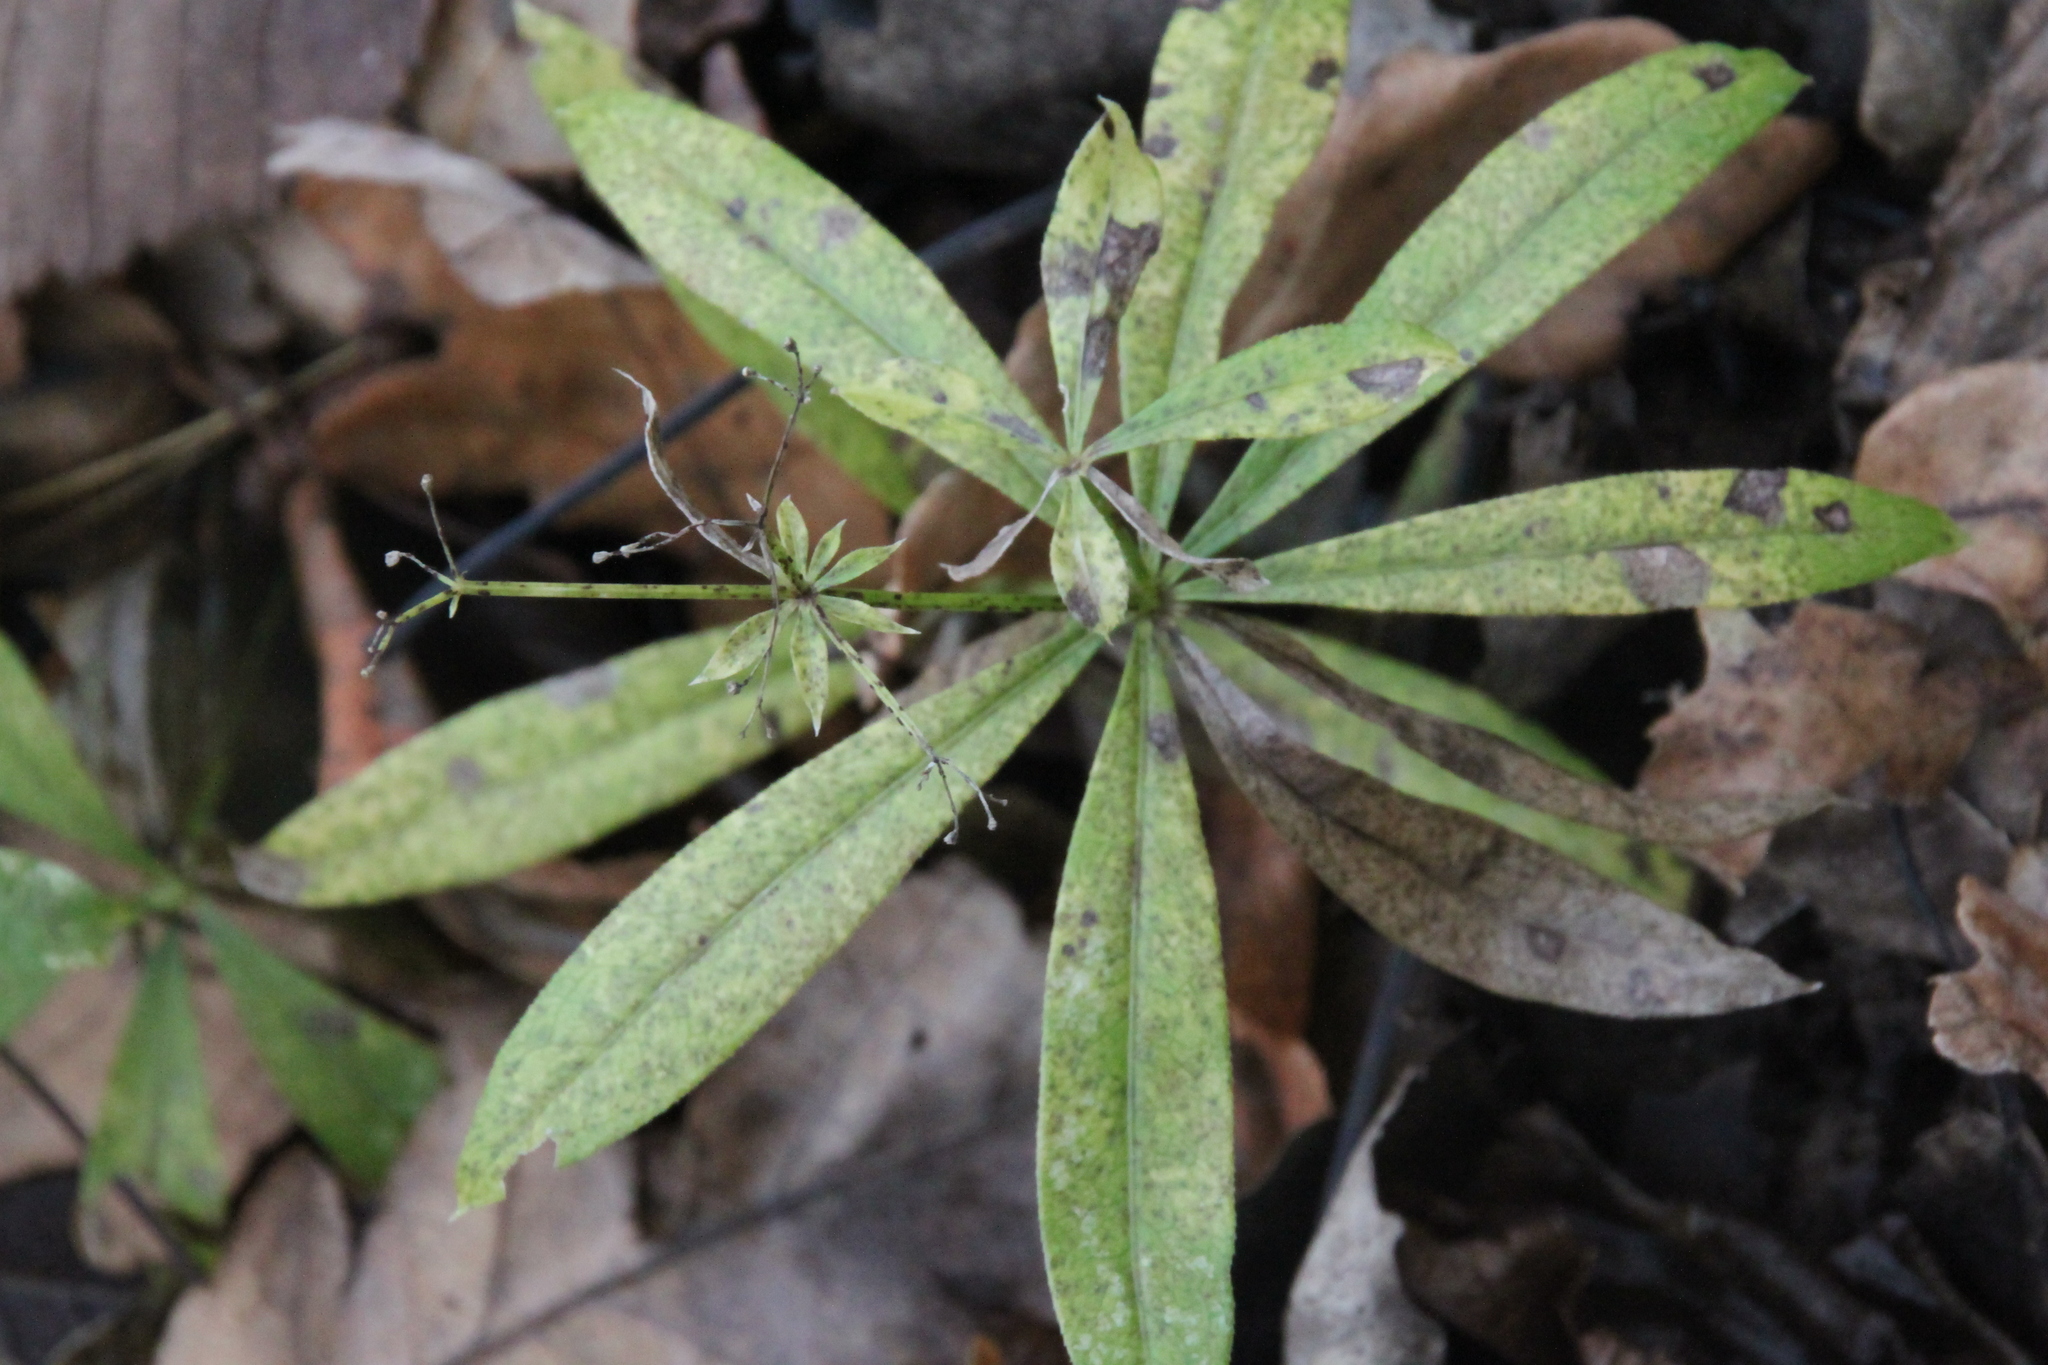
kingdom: Plantae
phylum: Tracheophyta
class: Magnoliopsida
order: Gentianales
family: Rubiaceae
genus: Galium
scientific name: Galium odoratum
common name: Sweet woodruff
